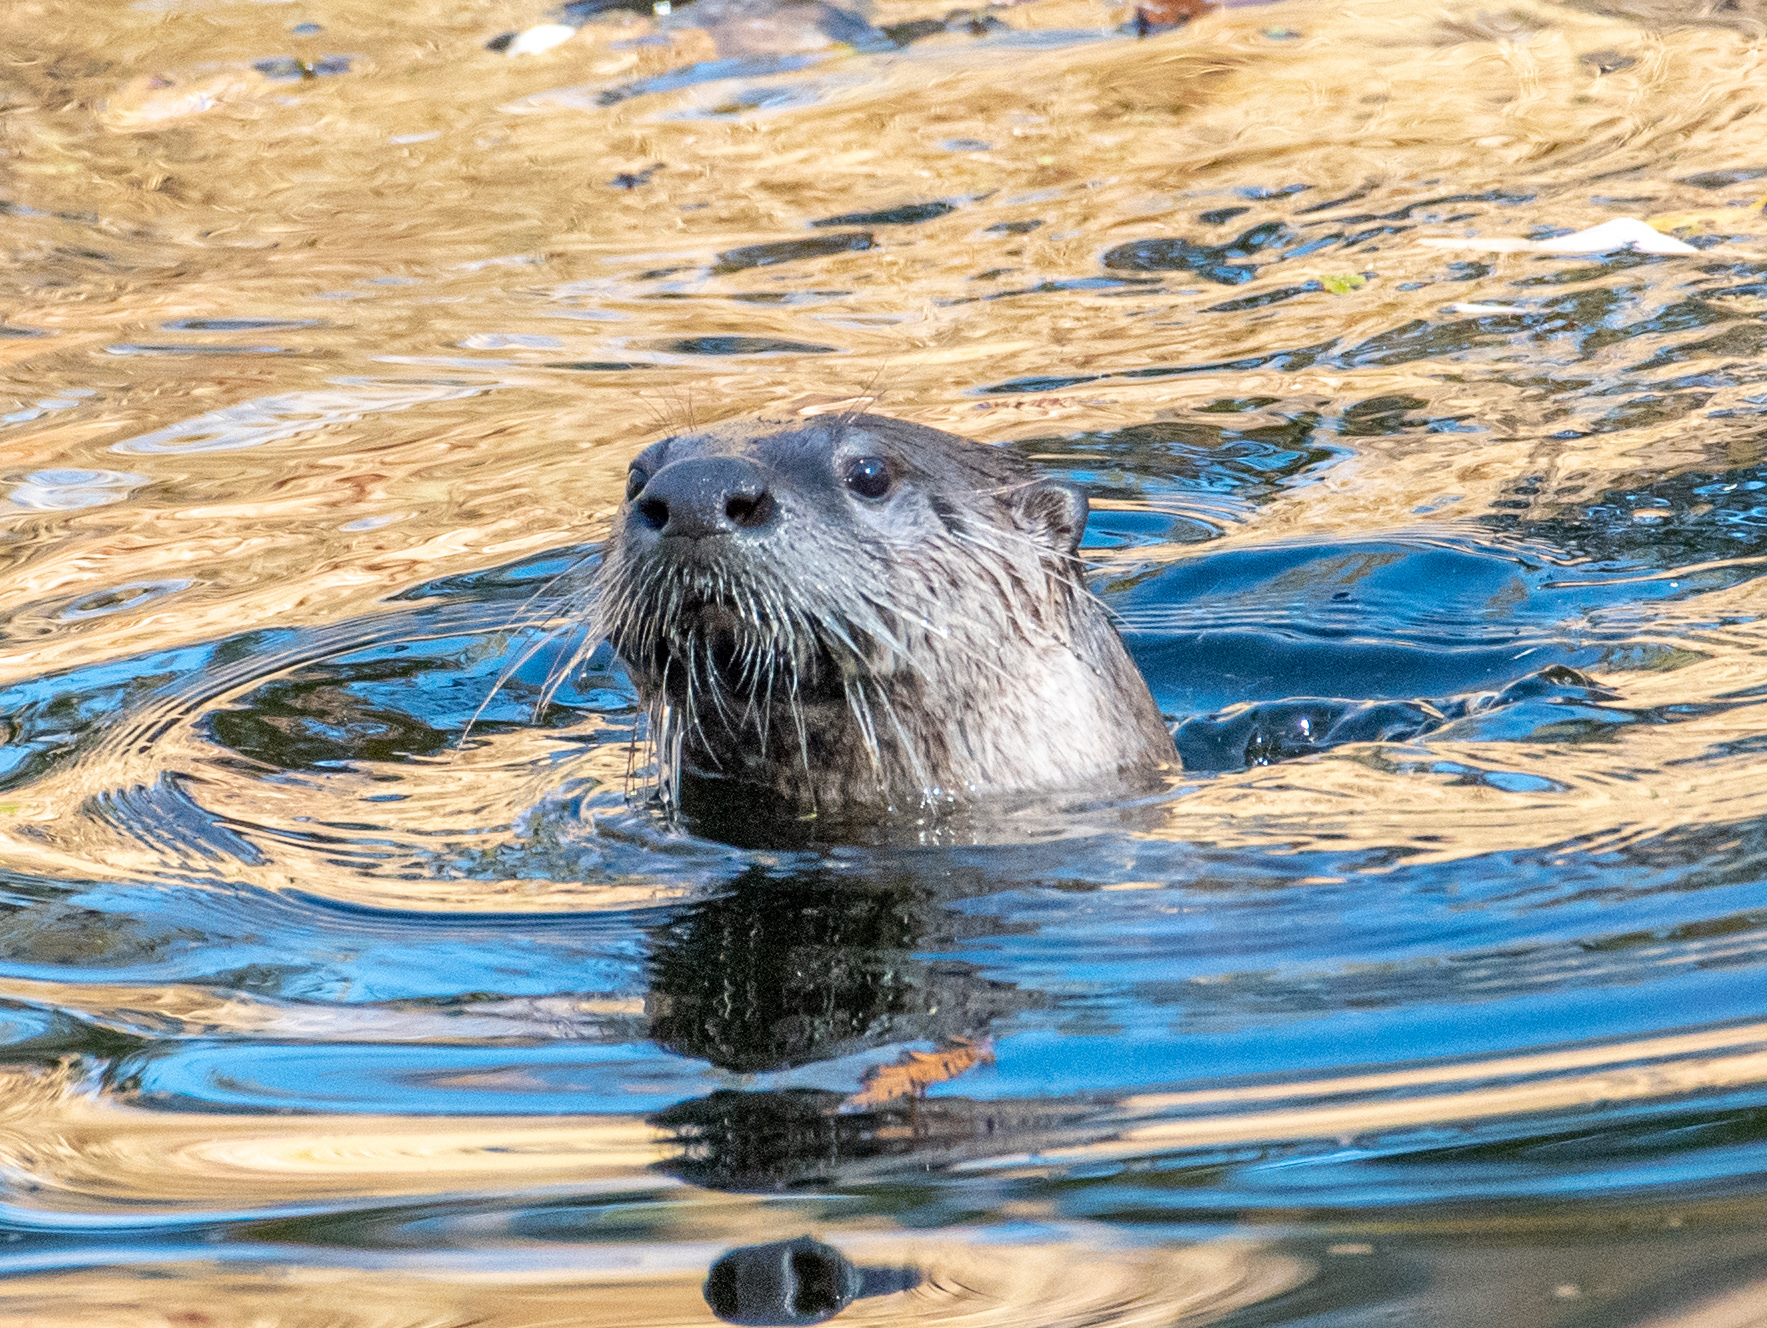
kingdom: Animalia
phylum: Chordata
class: Mammalia
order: Carnivora
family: Mustelidae
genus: Lontra
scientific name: Lontra canadensis
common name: North american river otter
